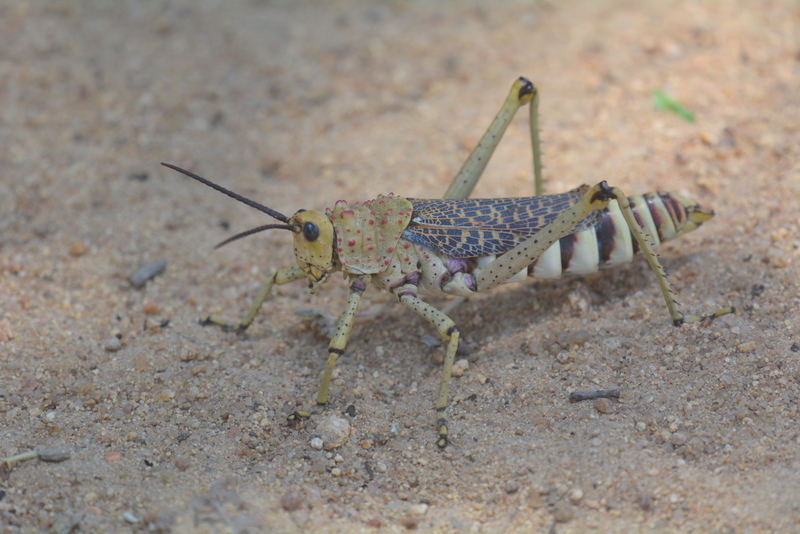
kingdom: Animalia
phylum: Arthropoda
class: Insecta
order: Orthoptera
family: Pyrgomorphidae
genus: Phymateus
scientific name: Phymateus baccatus
